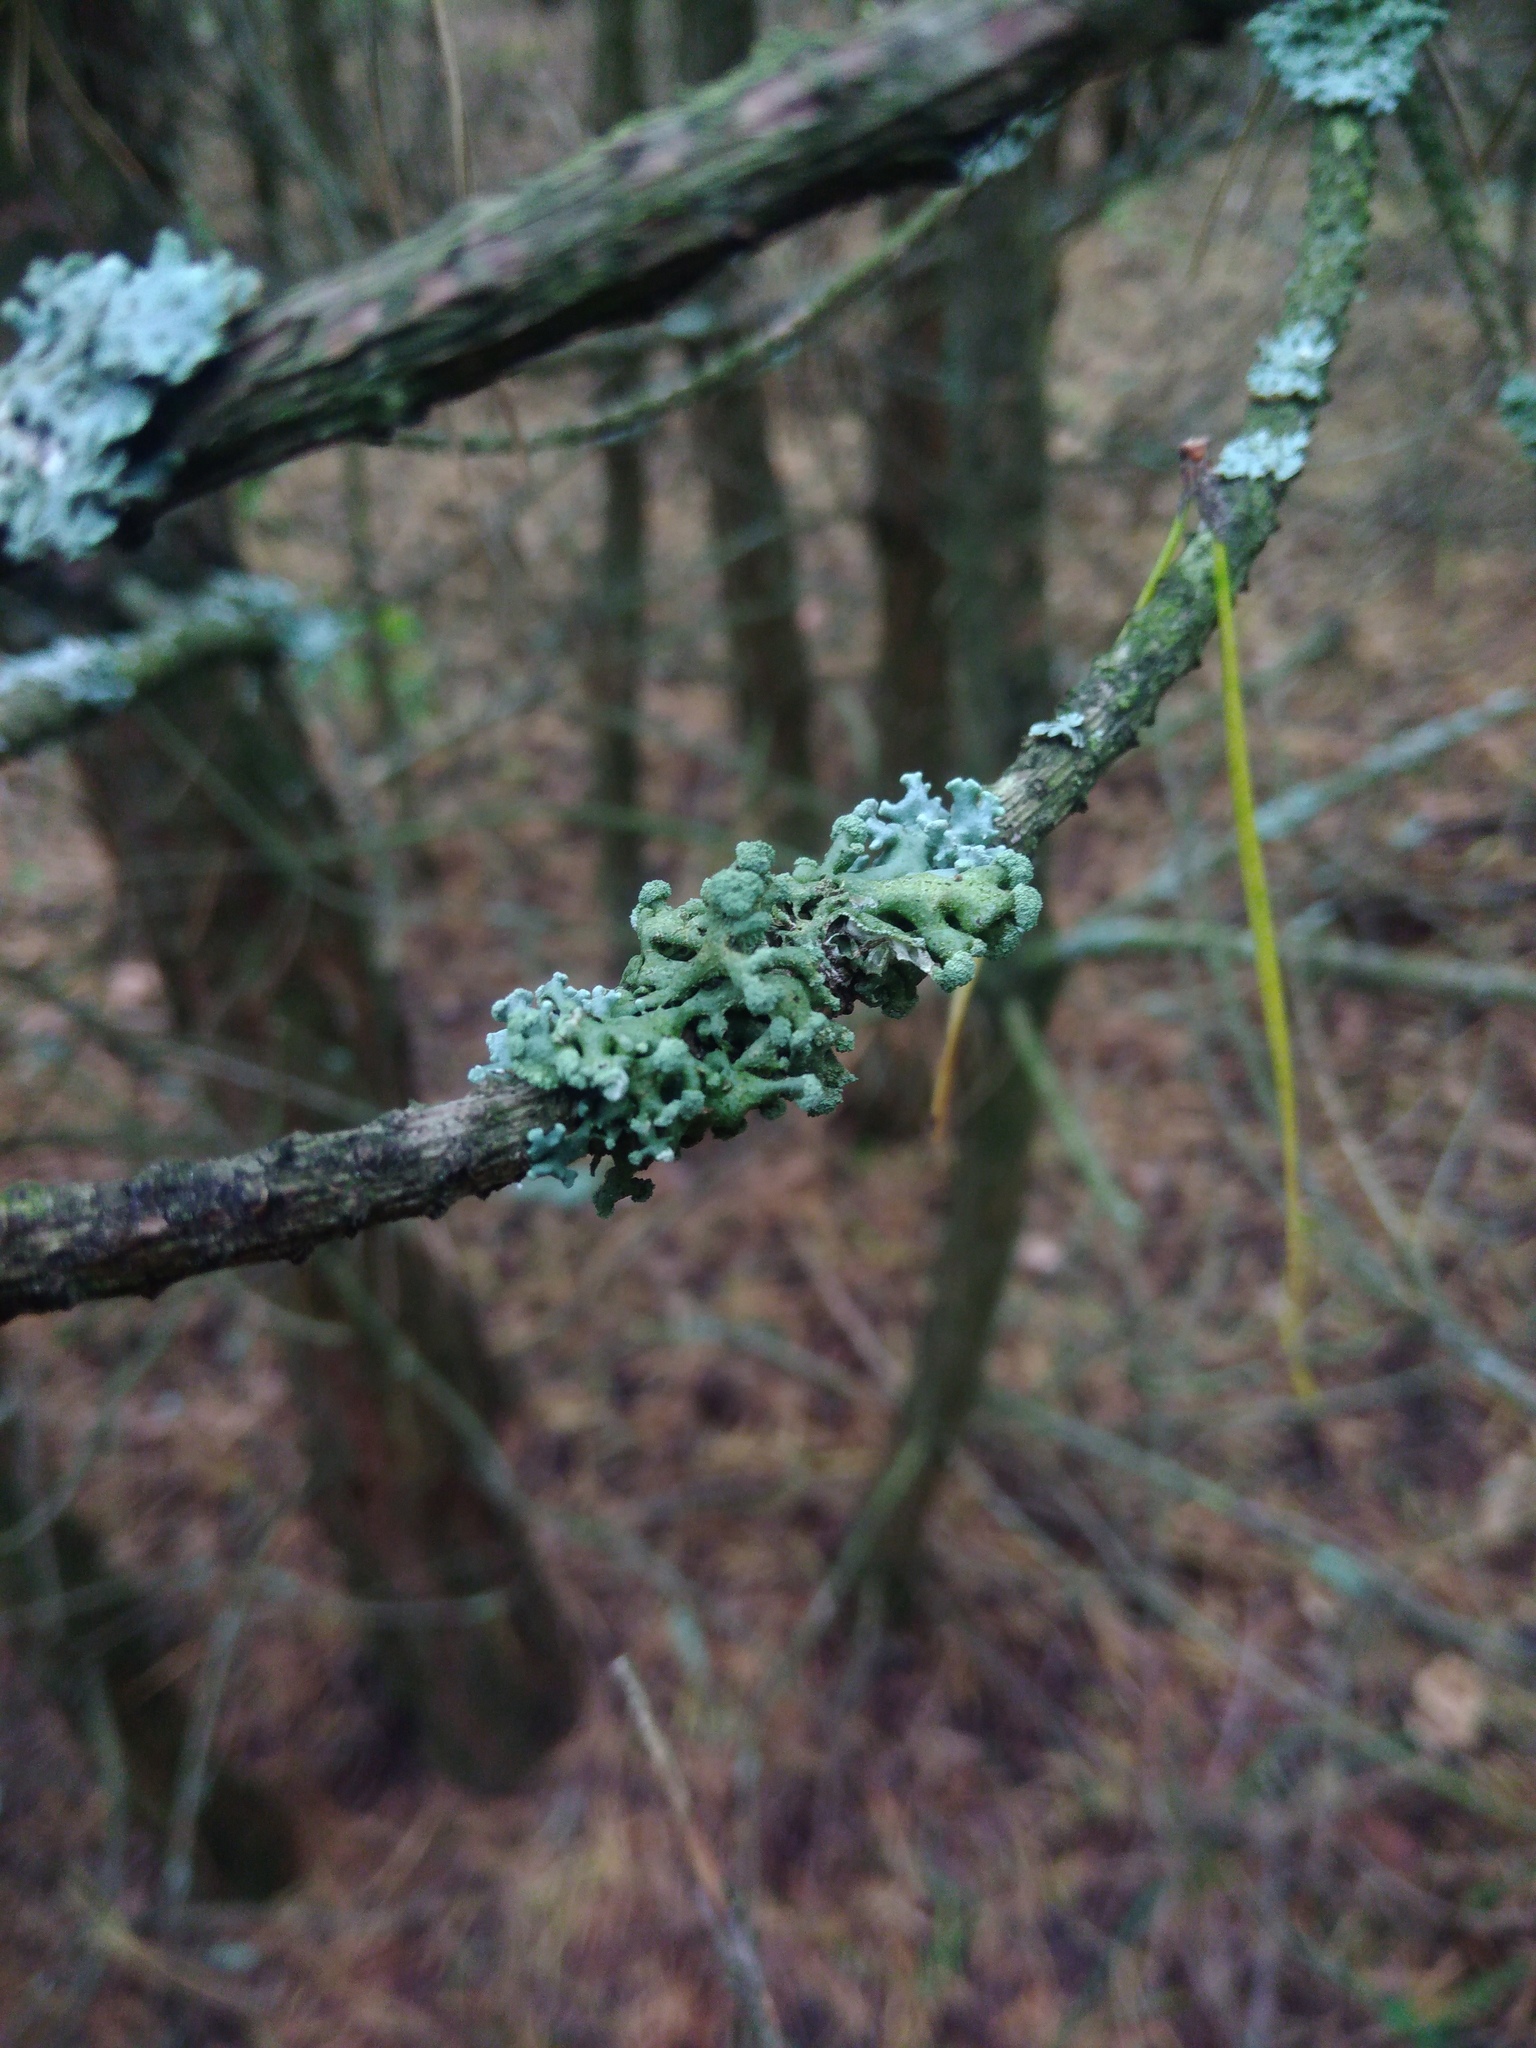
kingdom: Fungi
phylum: Ascomycota
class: Lecanoromycetes
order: Lecanorales
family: Parmeliaceae
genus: Hypogymnia
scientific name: Hypogymnia tubulosa
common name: Powder-headed tube lichen
